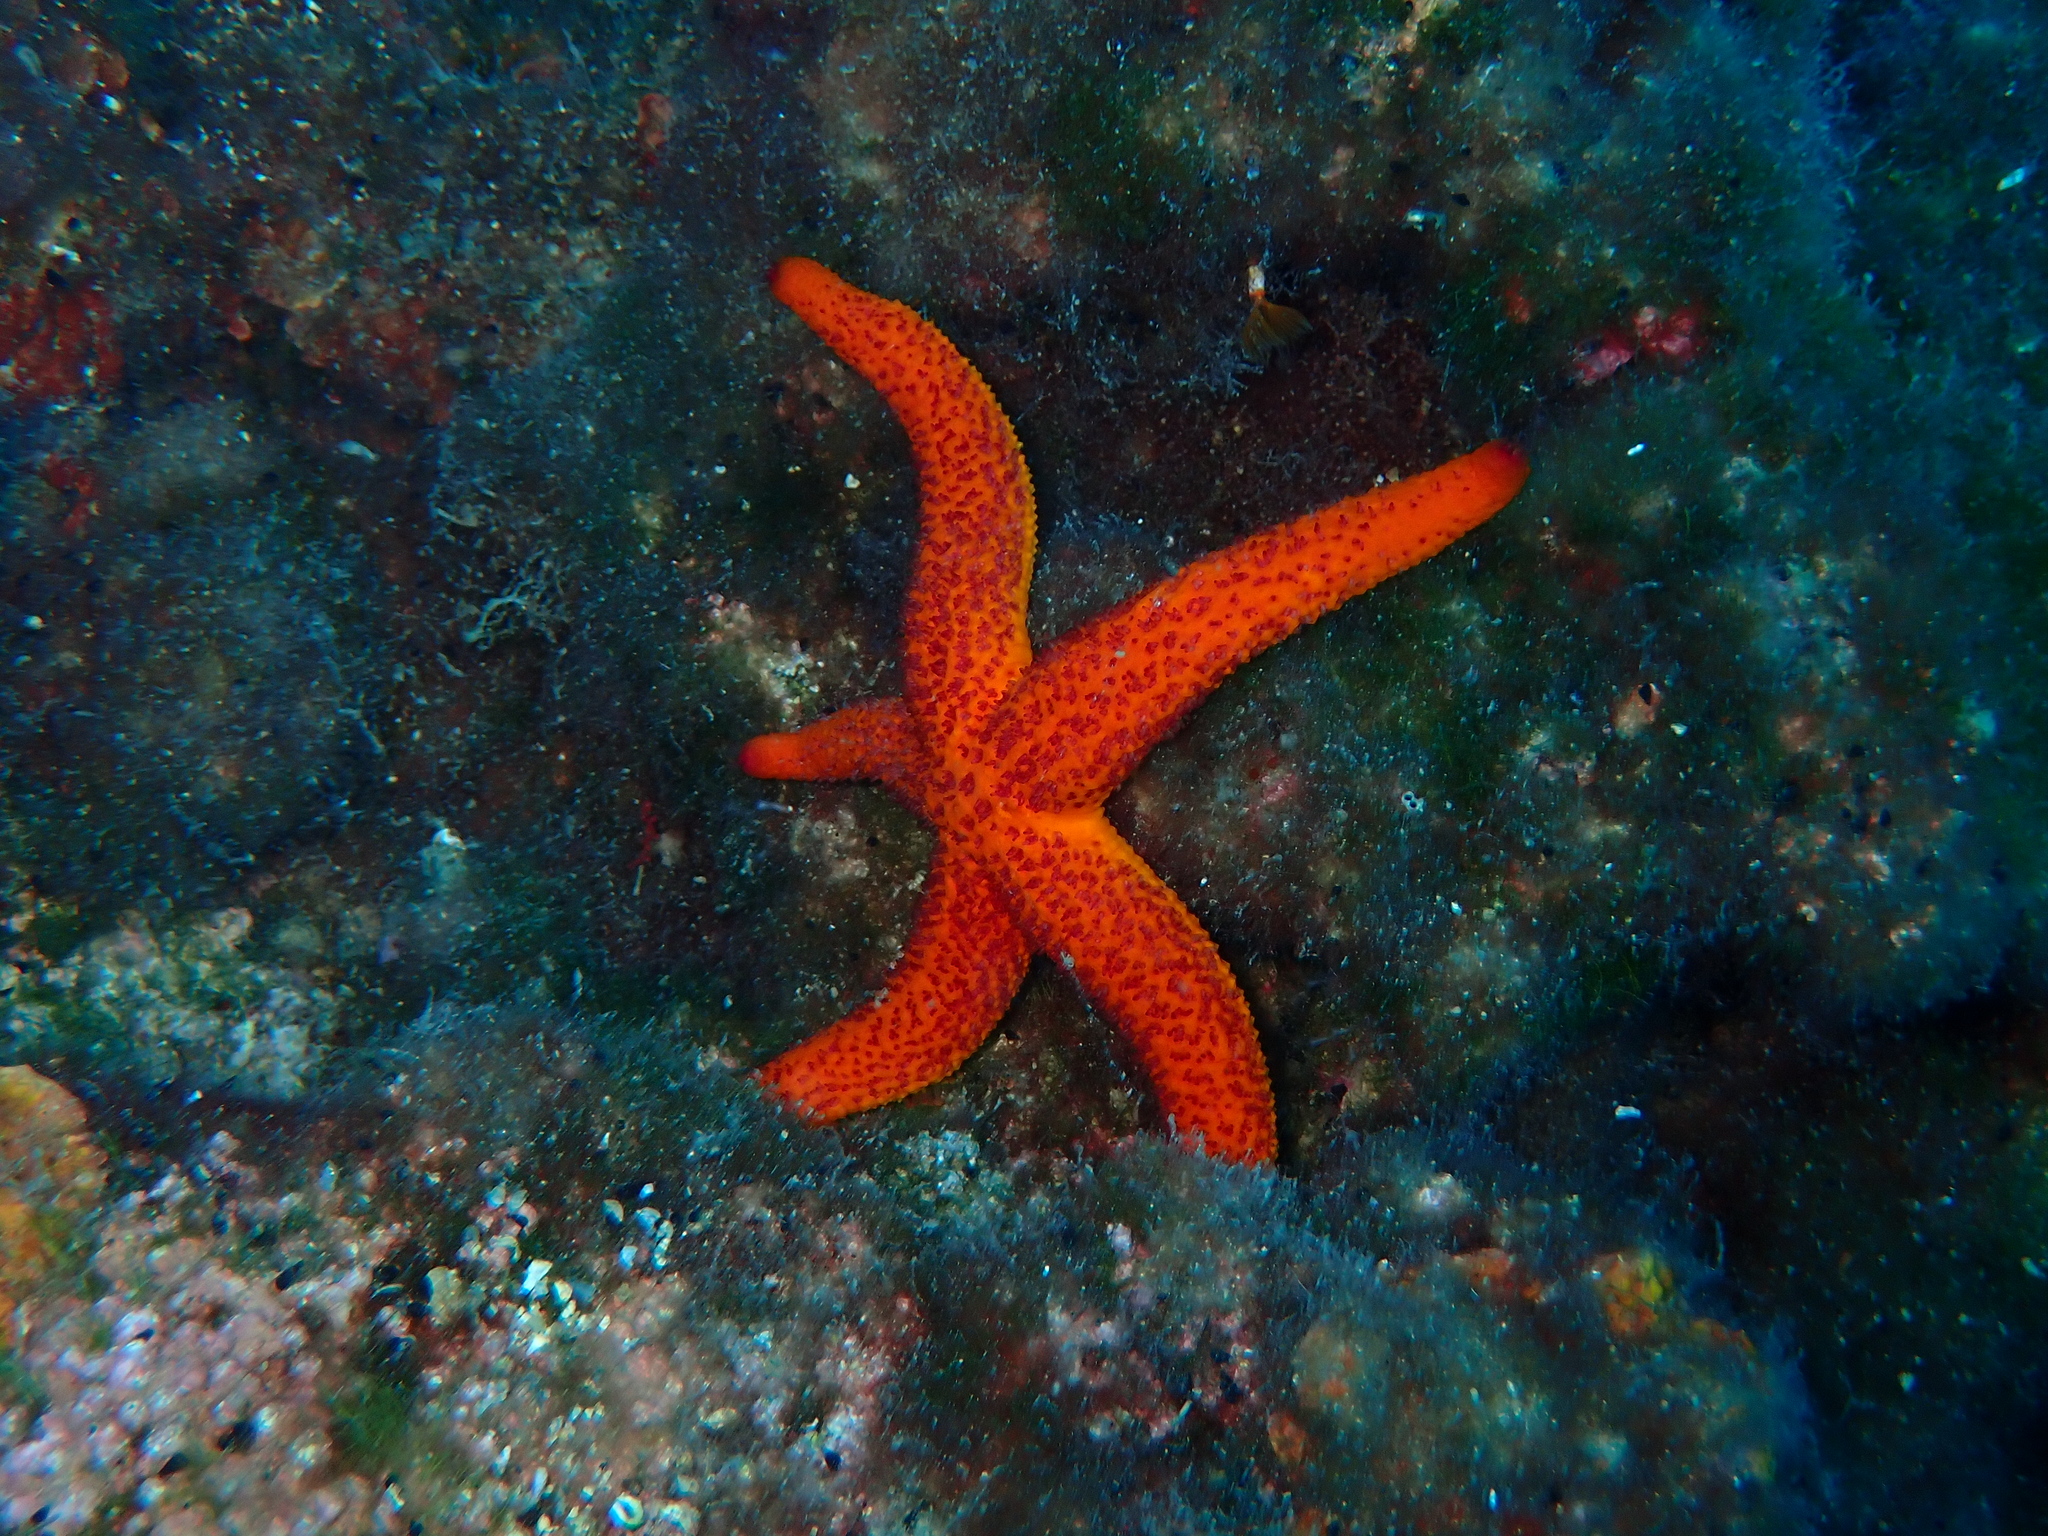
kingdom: Animalia
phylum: Echinodermata
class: Asteroidea
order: Spinulosida
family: Echinasteridae
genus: Echinaster
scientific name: Echinaster sepositus
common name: Red starfish
